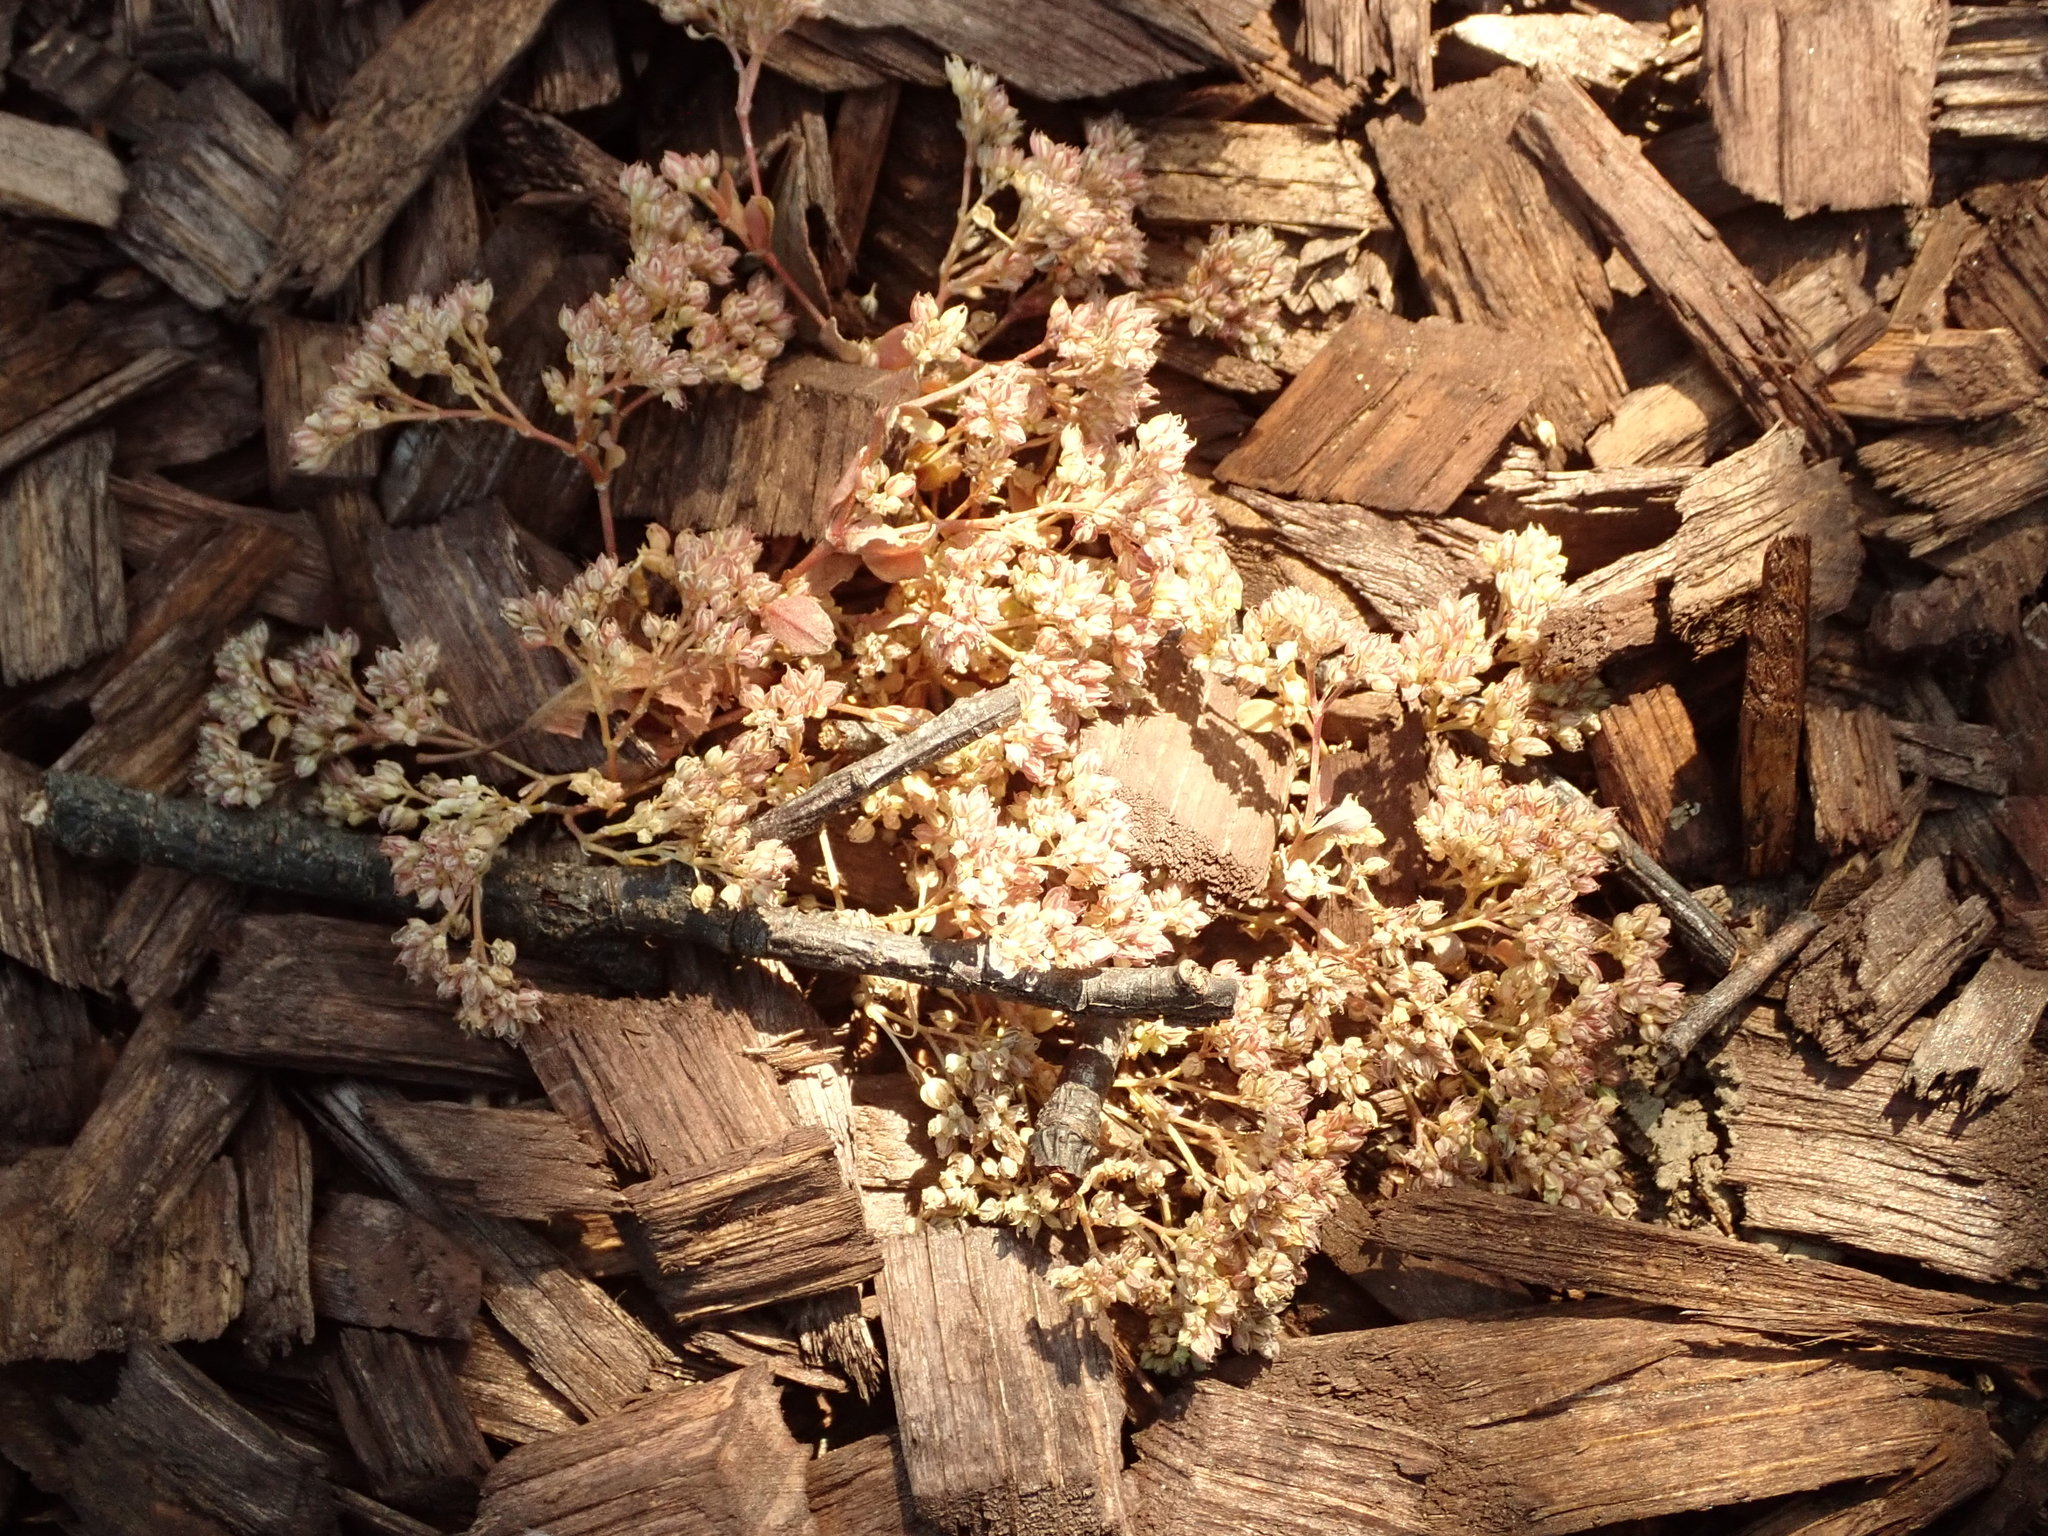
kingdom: Plantae
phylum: Tracheophyta
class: Magnoliopsida
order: Caryophyllales
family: Caryophyllaceae
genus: Polycarpon
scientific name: Polycarpon tetraphyllum
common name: Four-leaved all-seed
